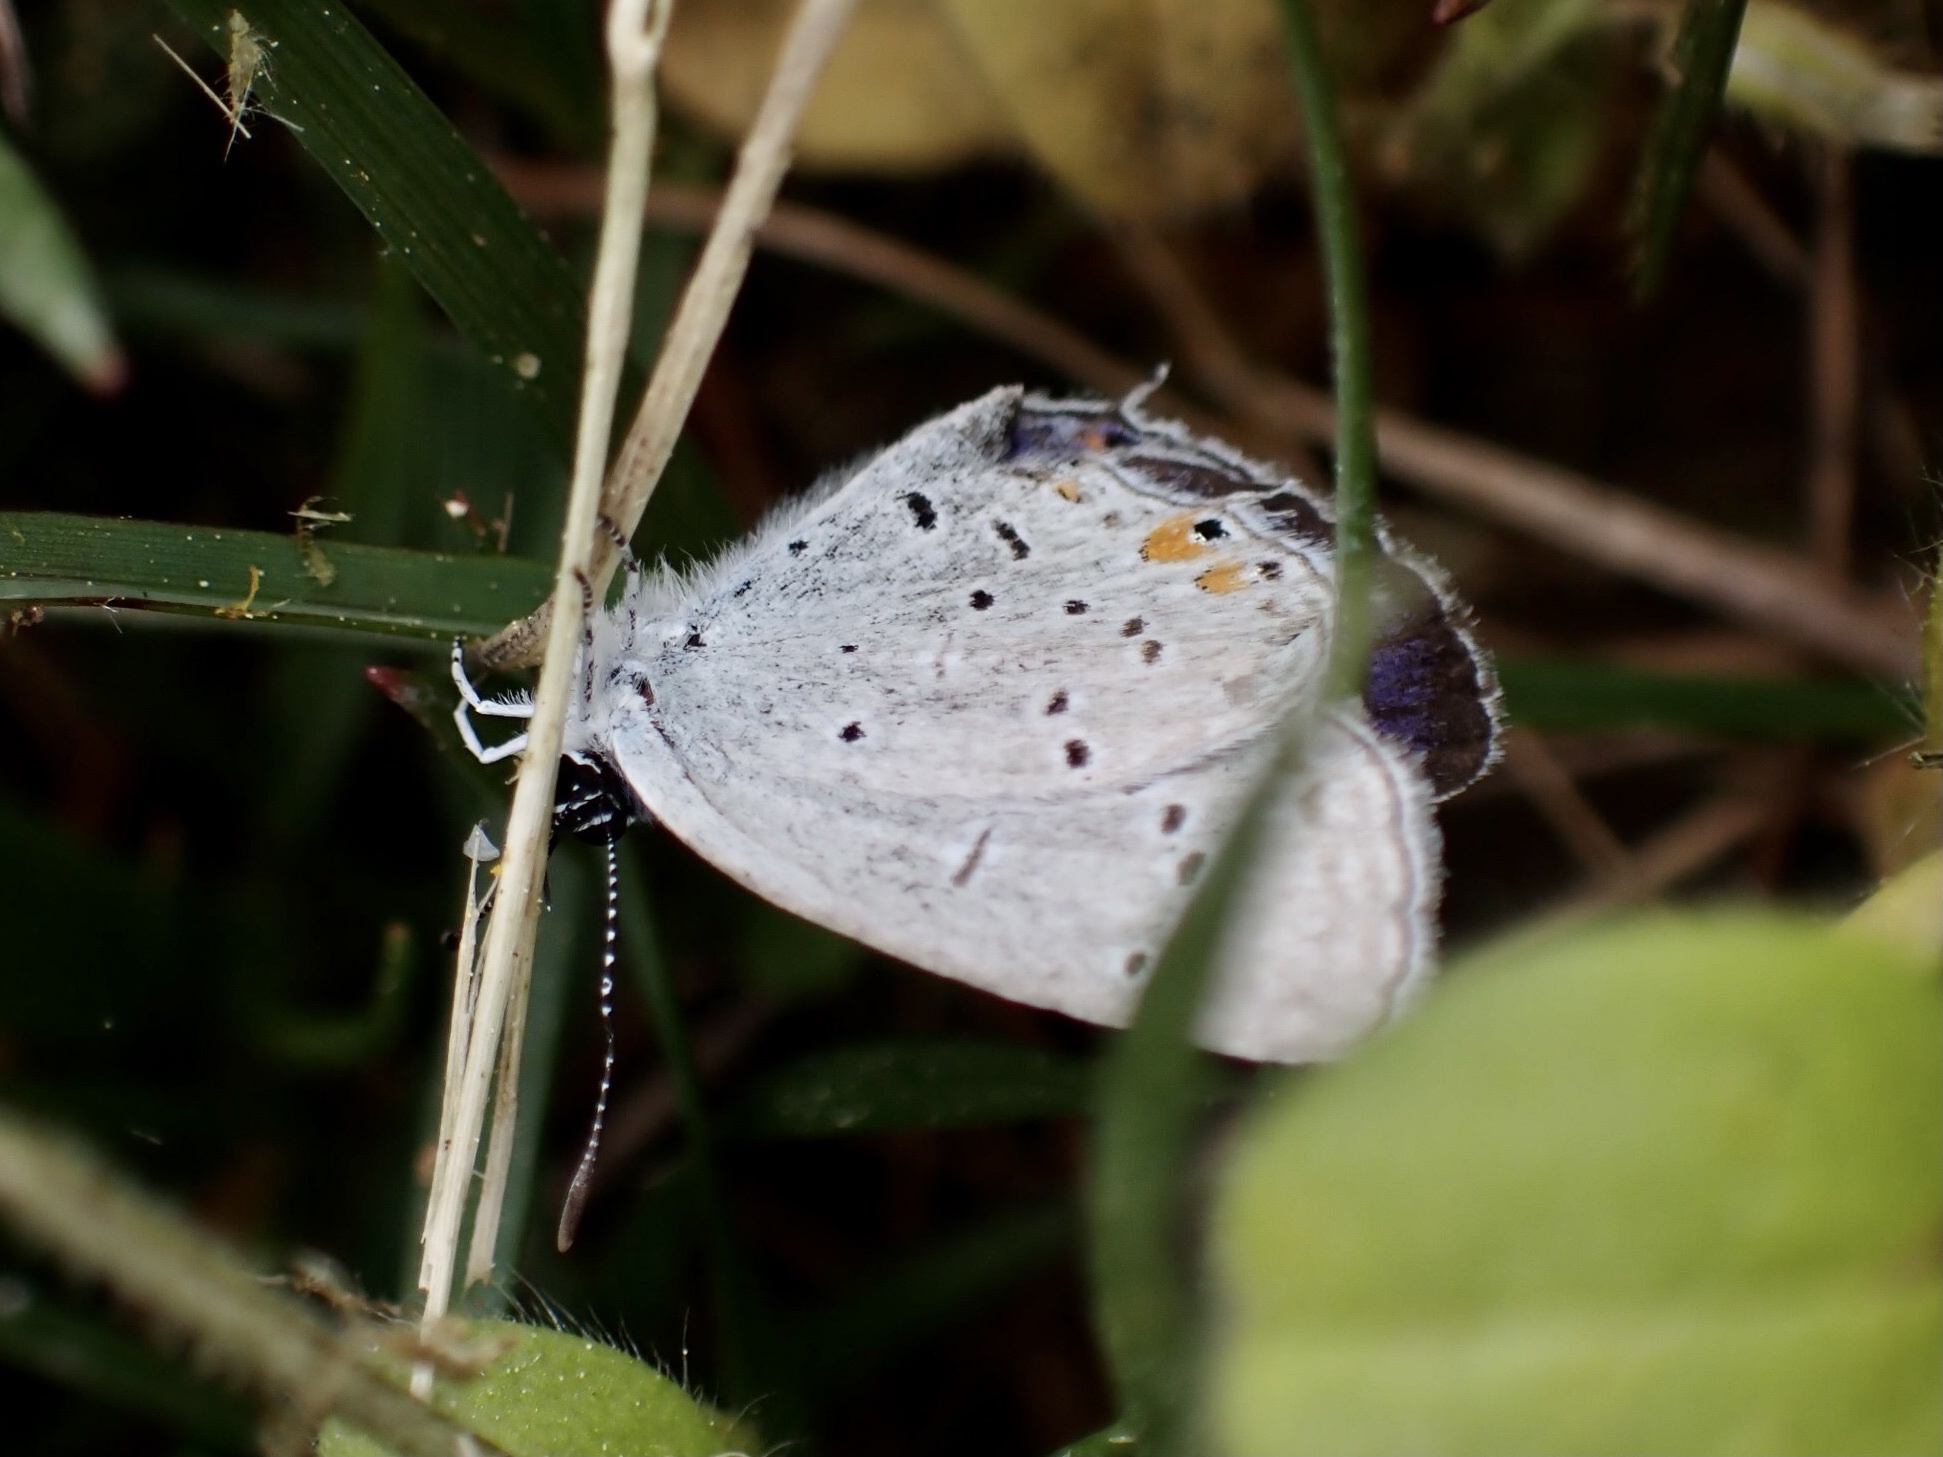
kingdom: Animalia
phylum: Arthropoda
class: Insecta
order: Lepidoptera
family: Lycaenidae
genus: Elkalyce
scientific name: Elkalyce comyntas
